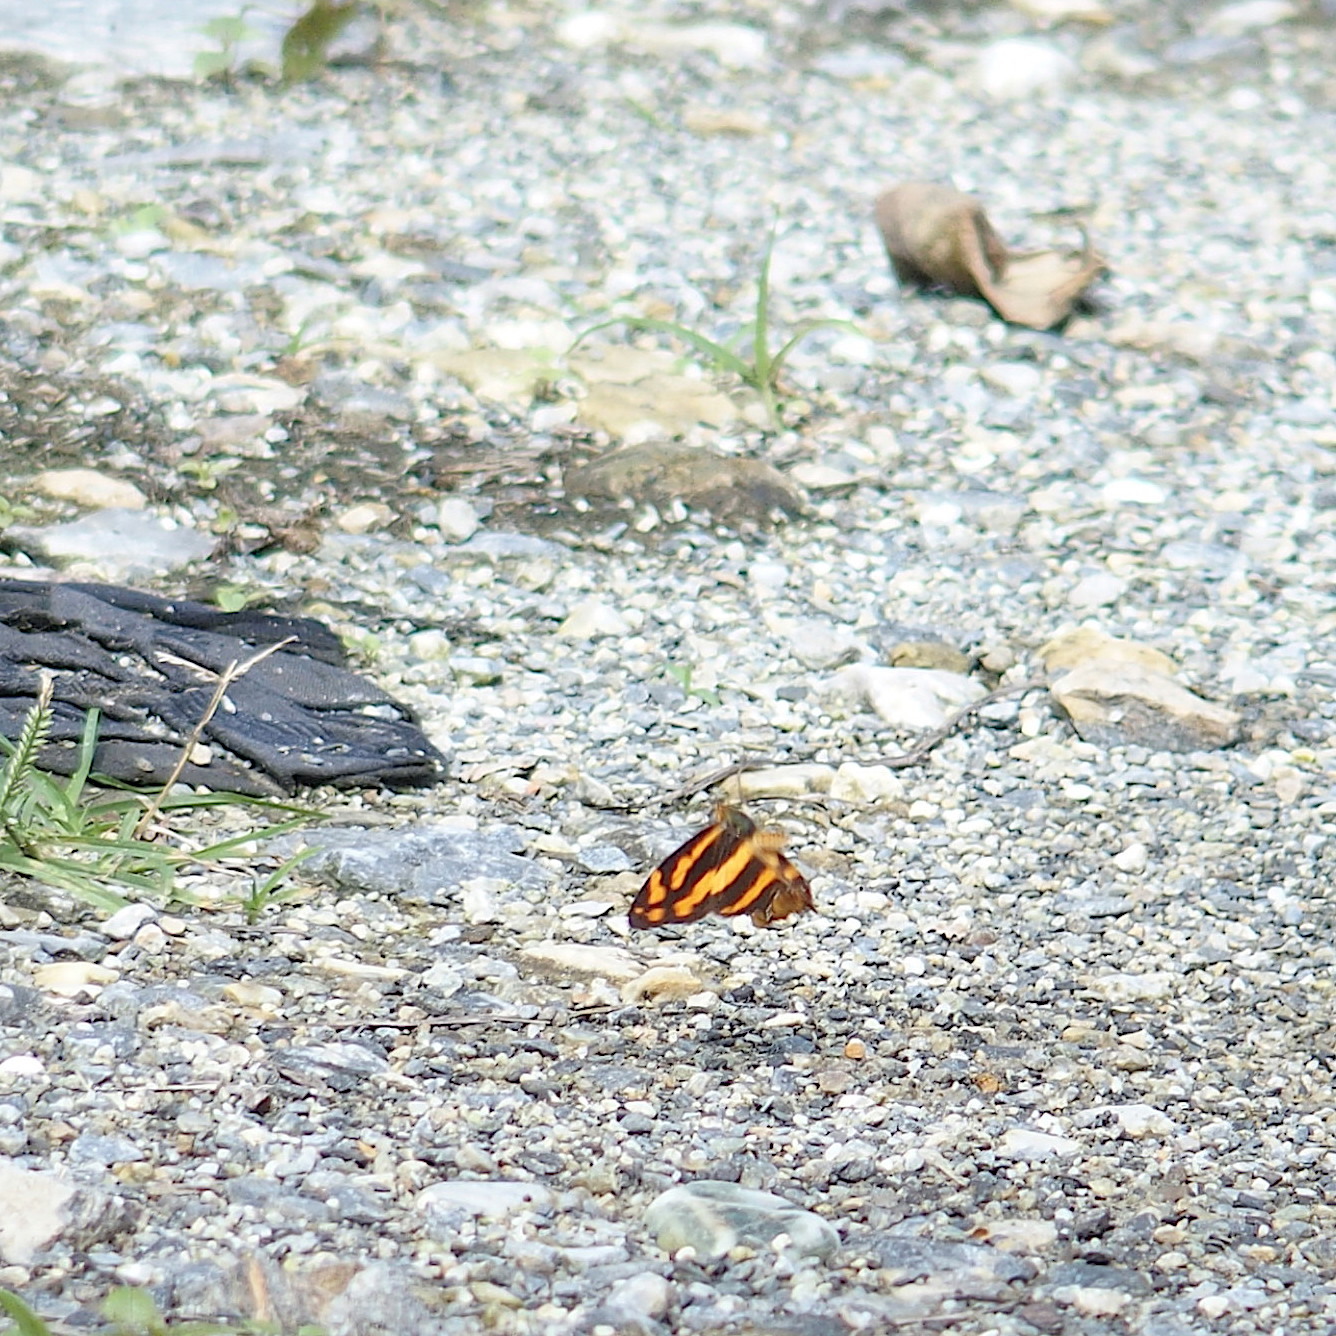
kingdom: Animalia
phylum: Arthropoda
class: Insecta
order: Lepidoptera
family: Nymphalidae
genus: Symbrenthia
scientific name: Symbrenthia hypselis
